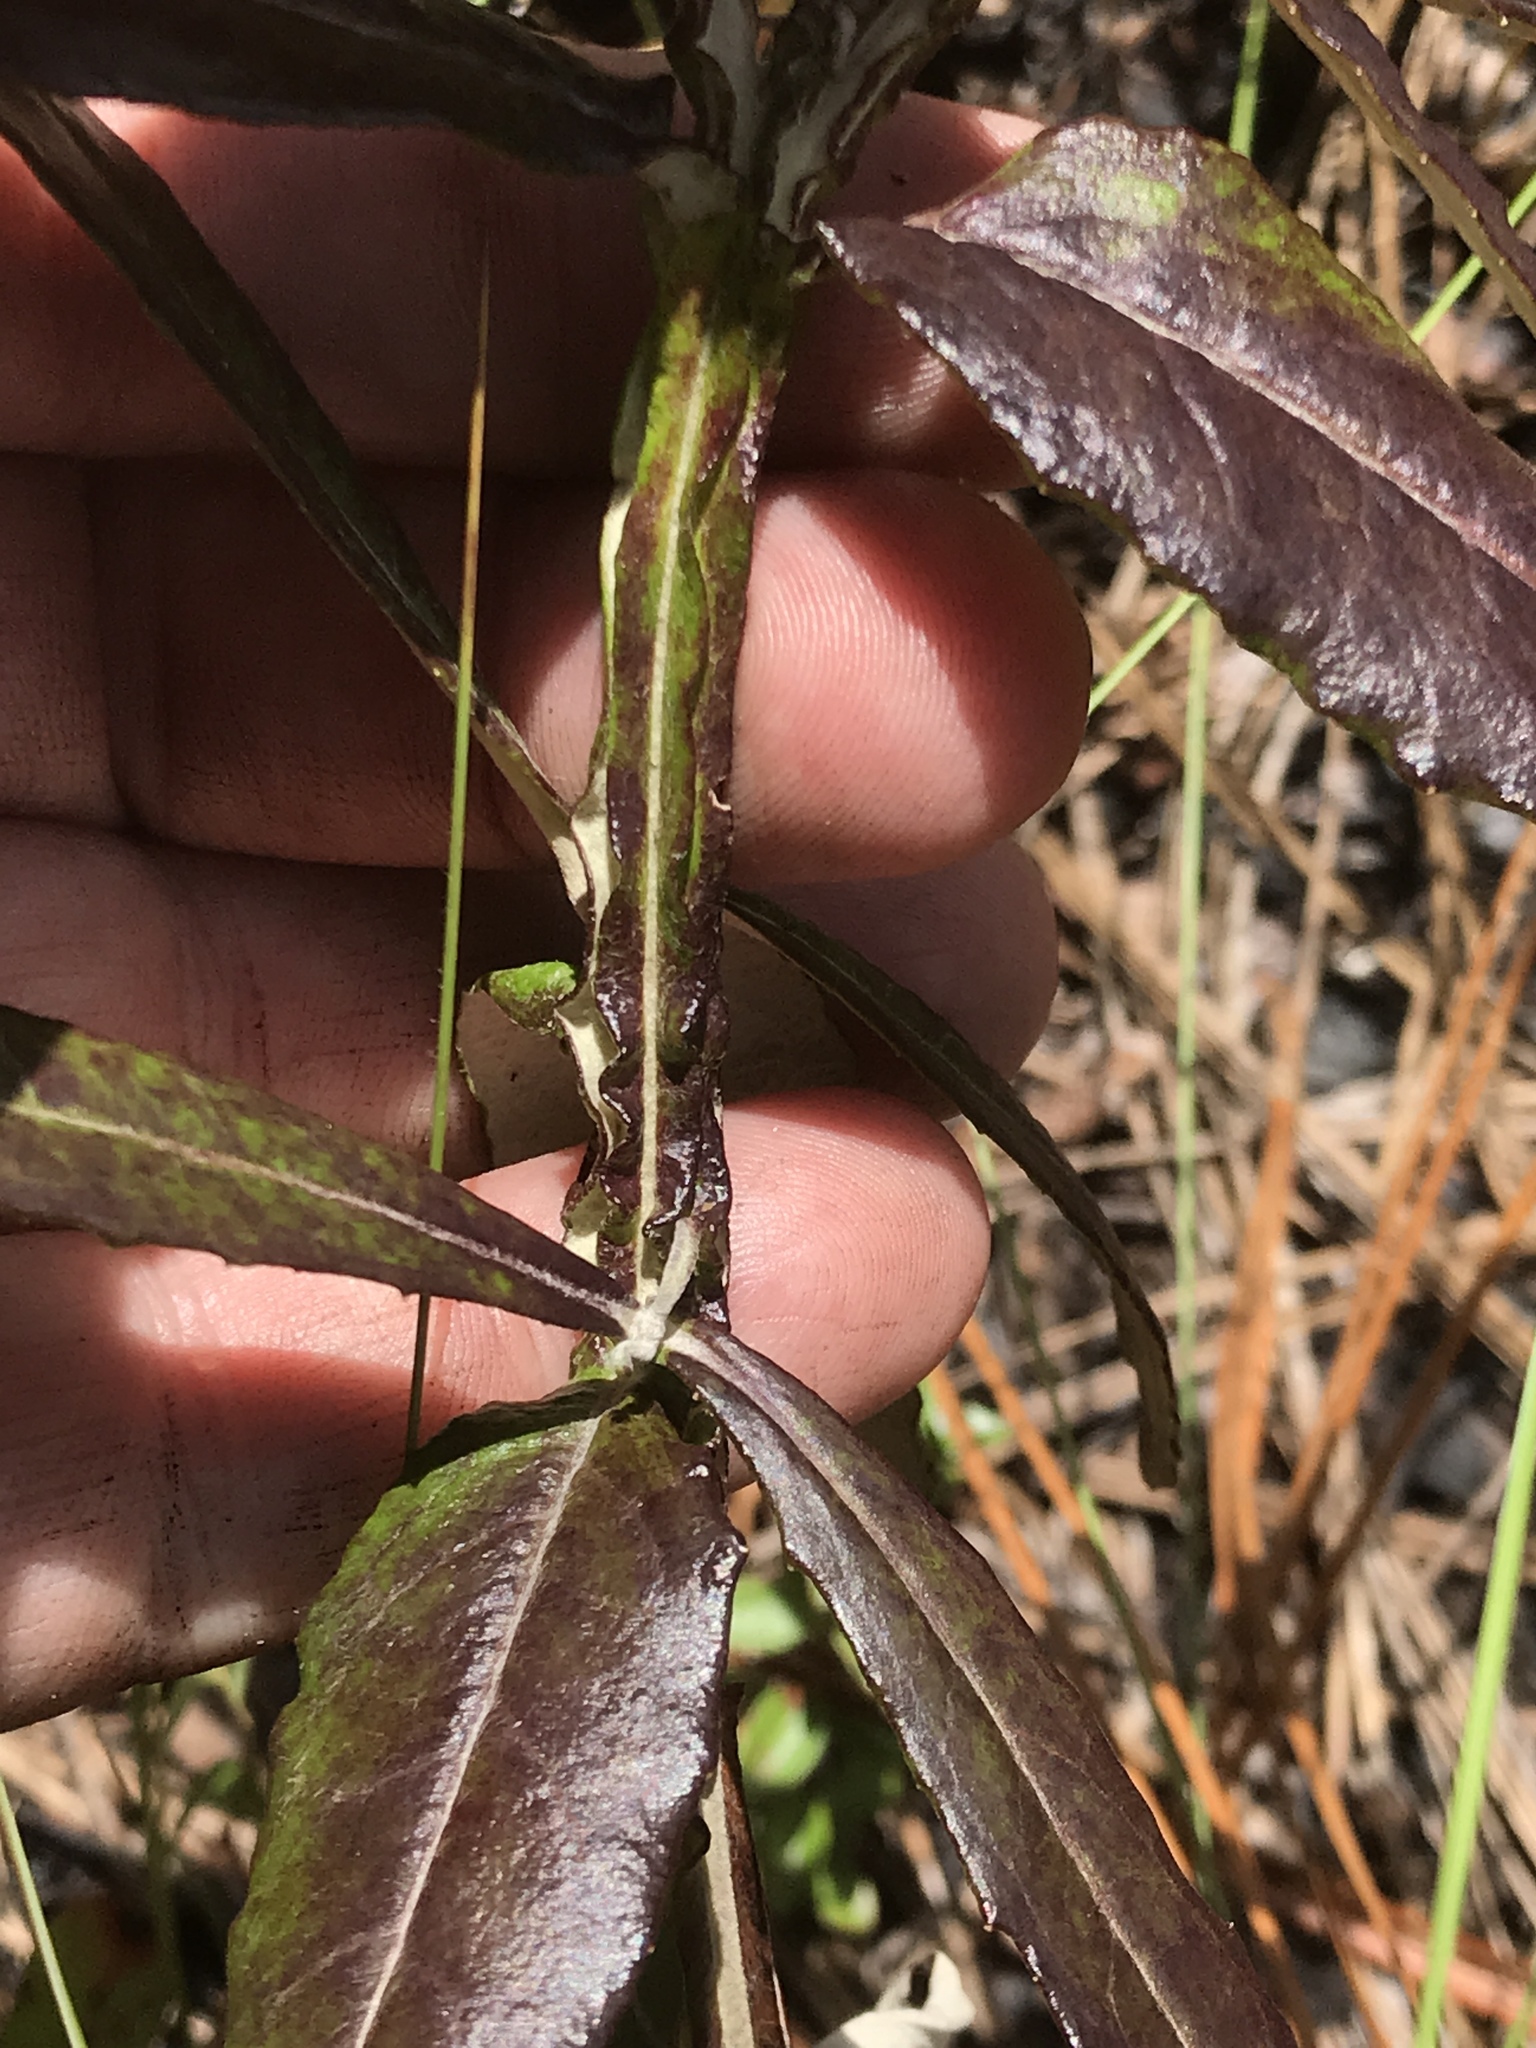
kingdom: Plantae
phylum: Tracheophyta
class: Magnoliopsida
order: Asterales
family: Asteraceae
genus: Pterocaulon
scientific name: Pterocaulon pycnostachyum
